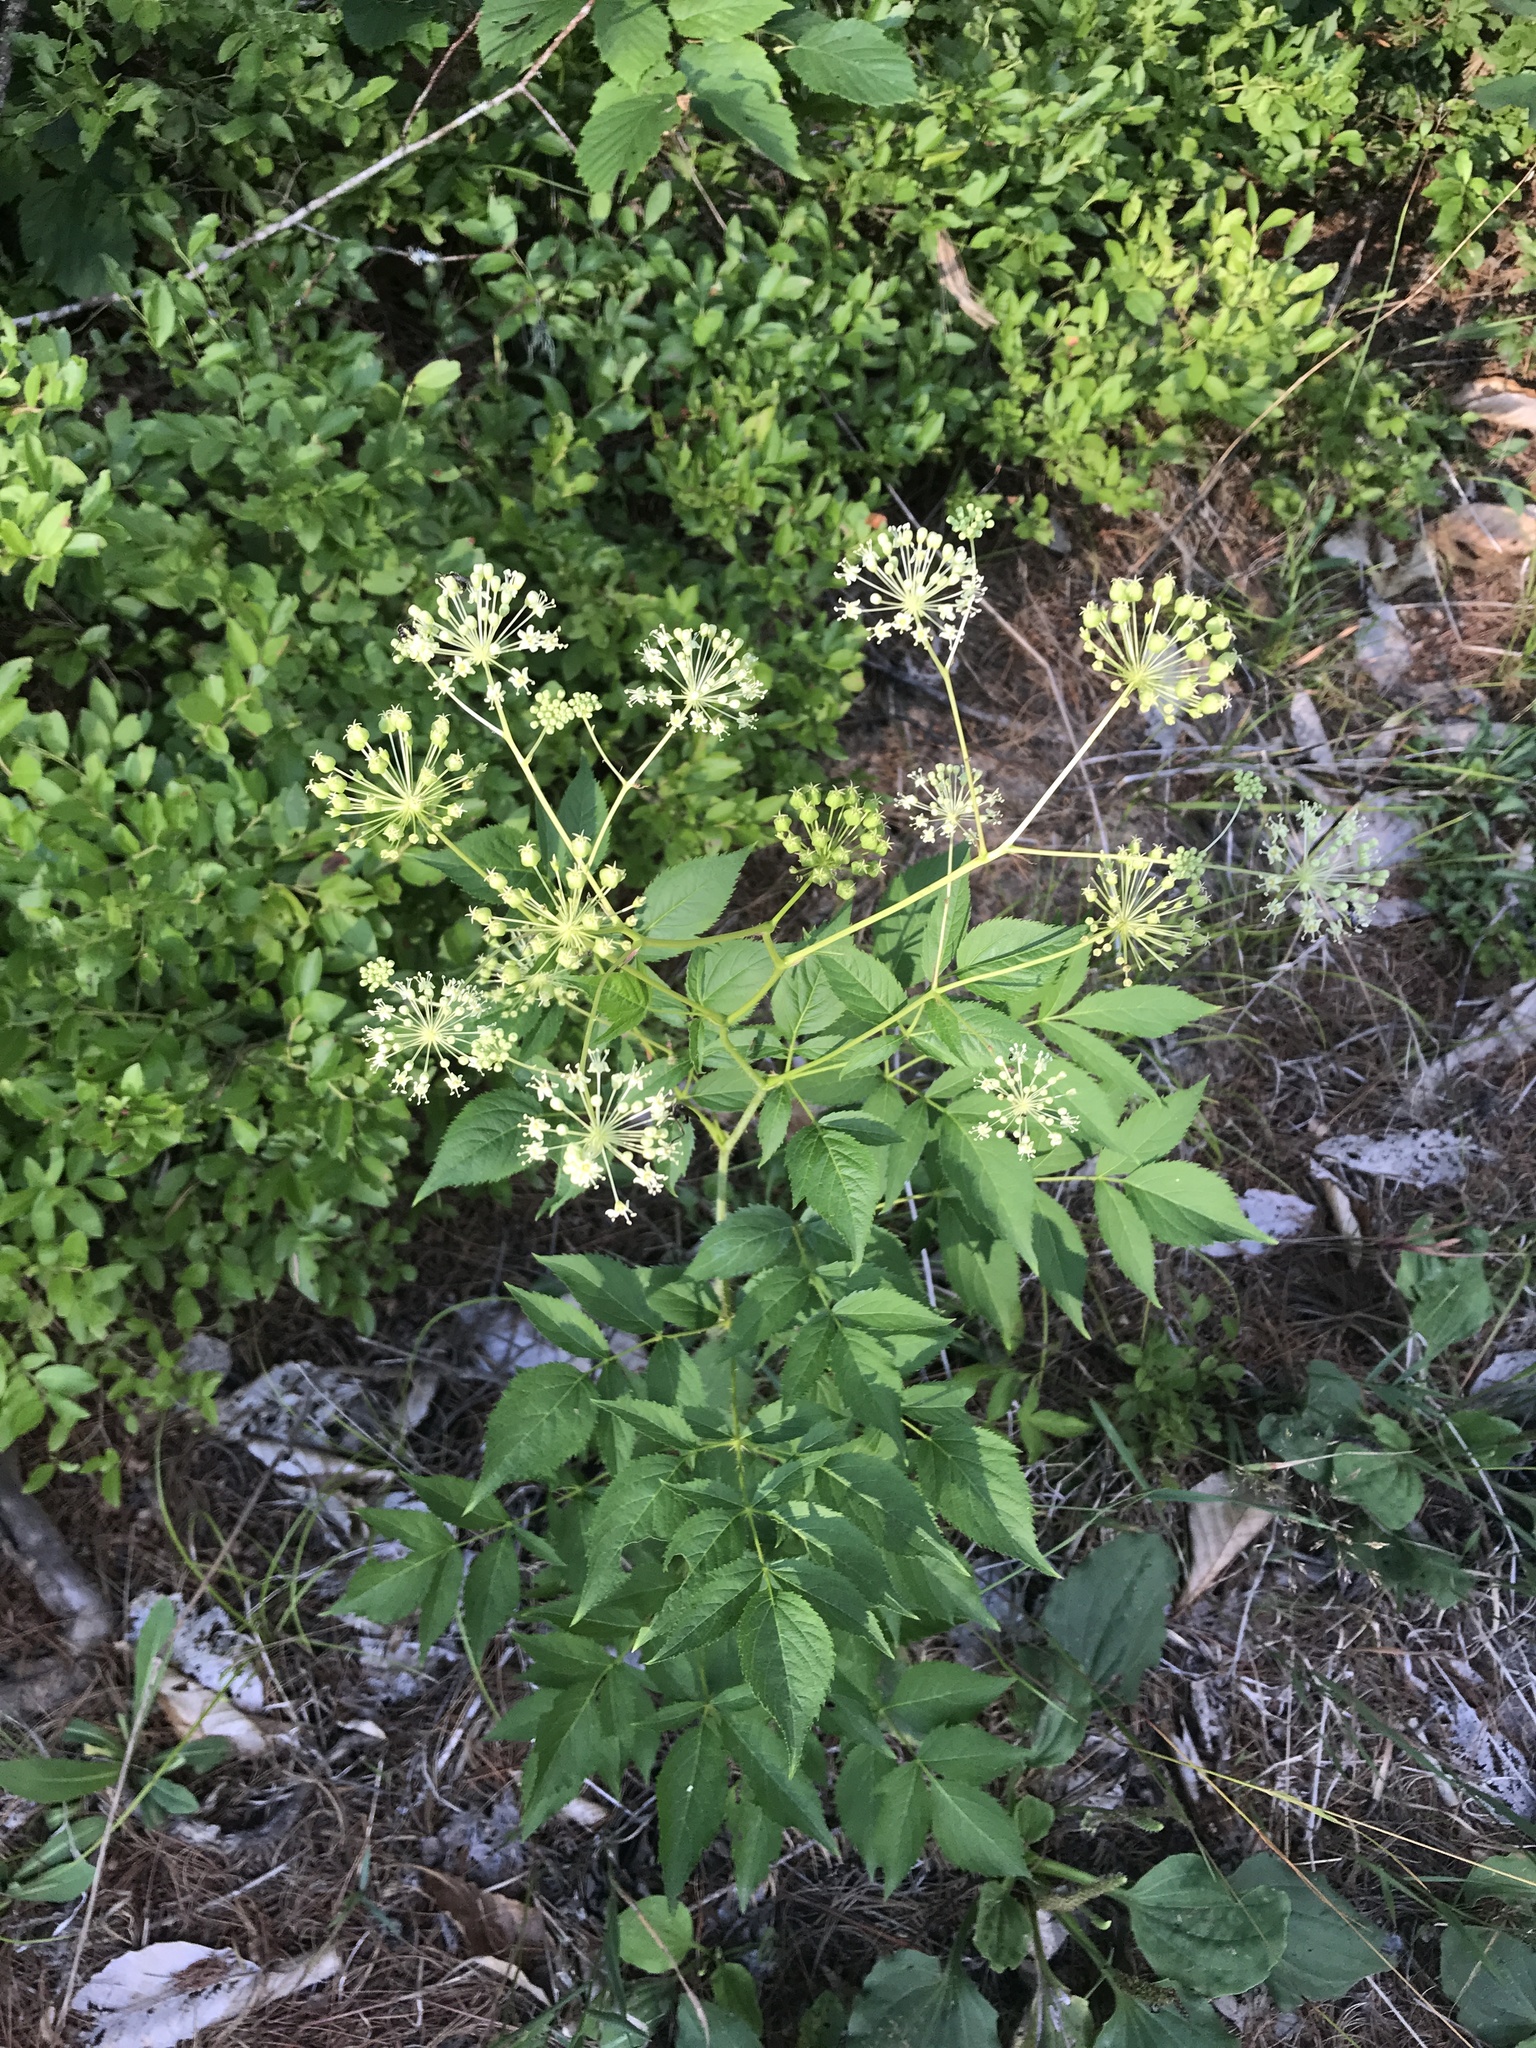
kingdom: Plantae
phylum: Tracheophyta
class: Magnoliopsida
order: Apiales
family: Araliaceae
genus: Aralia
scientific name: Aralia hispida
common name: Bristly sarsaparilla
